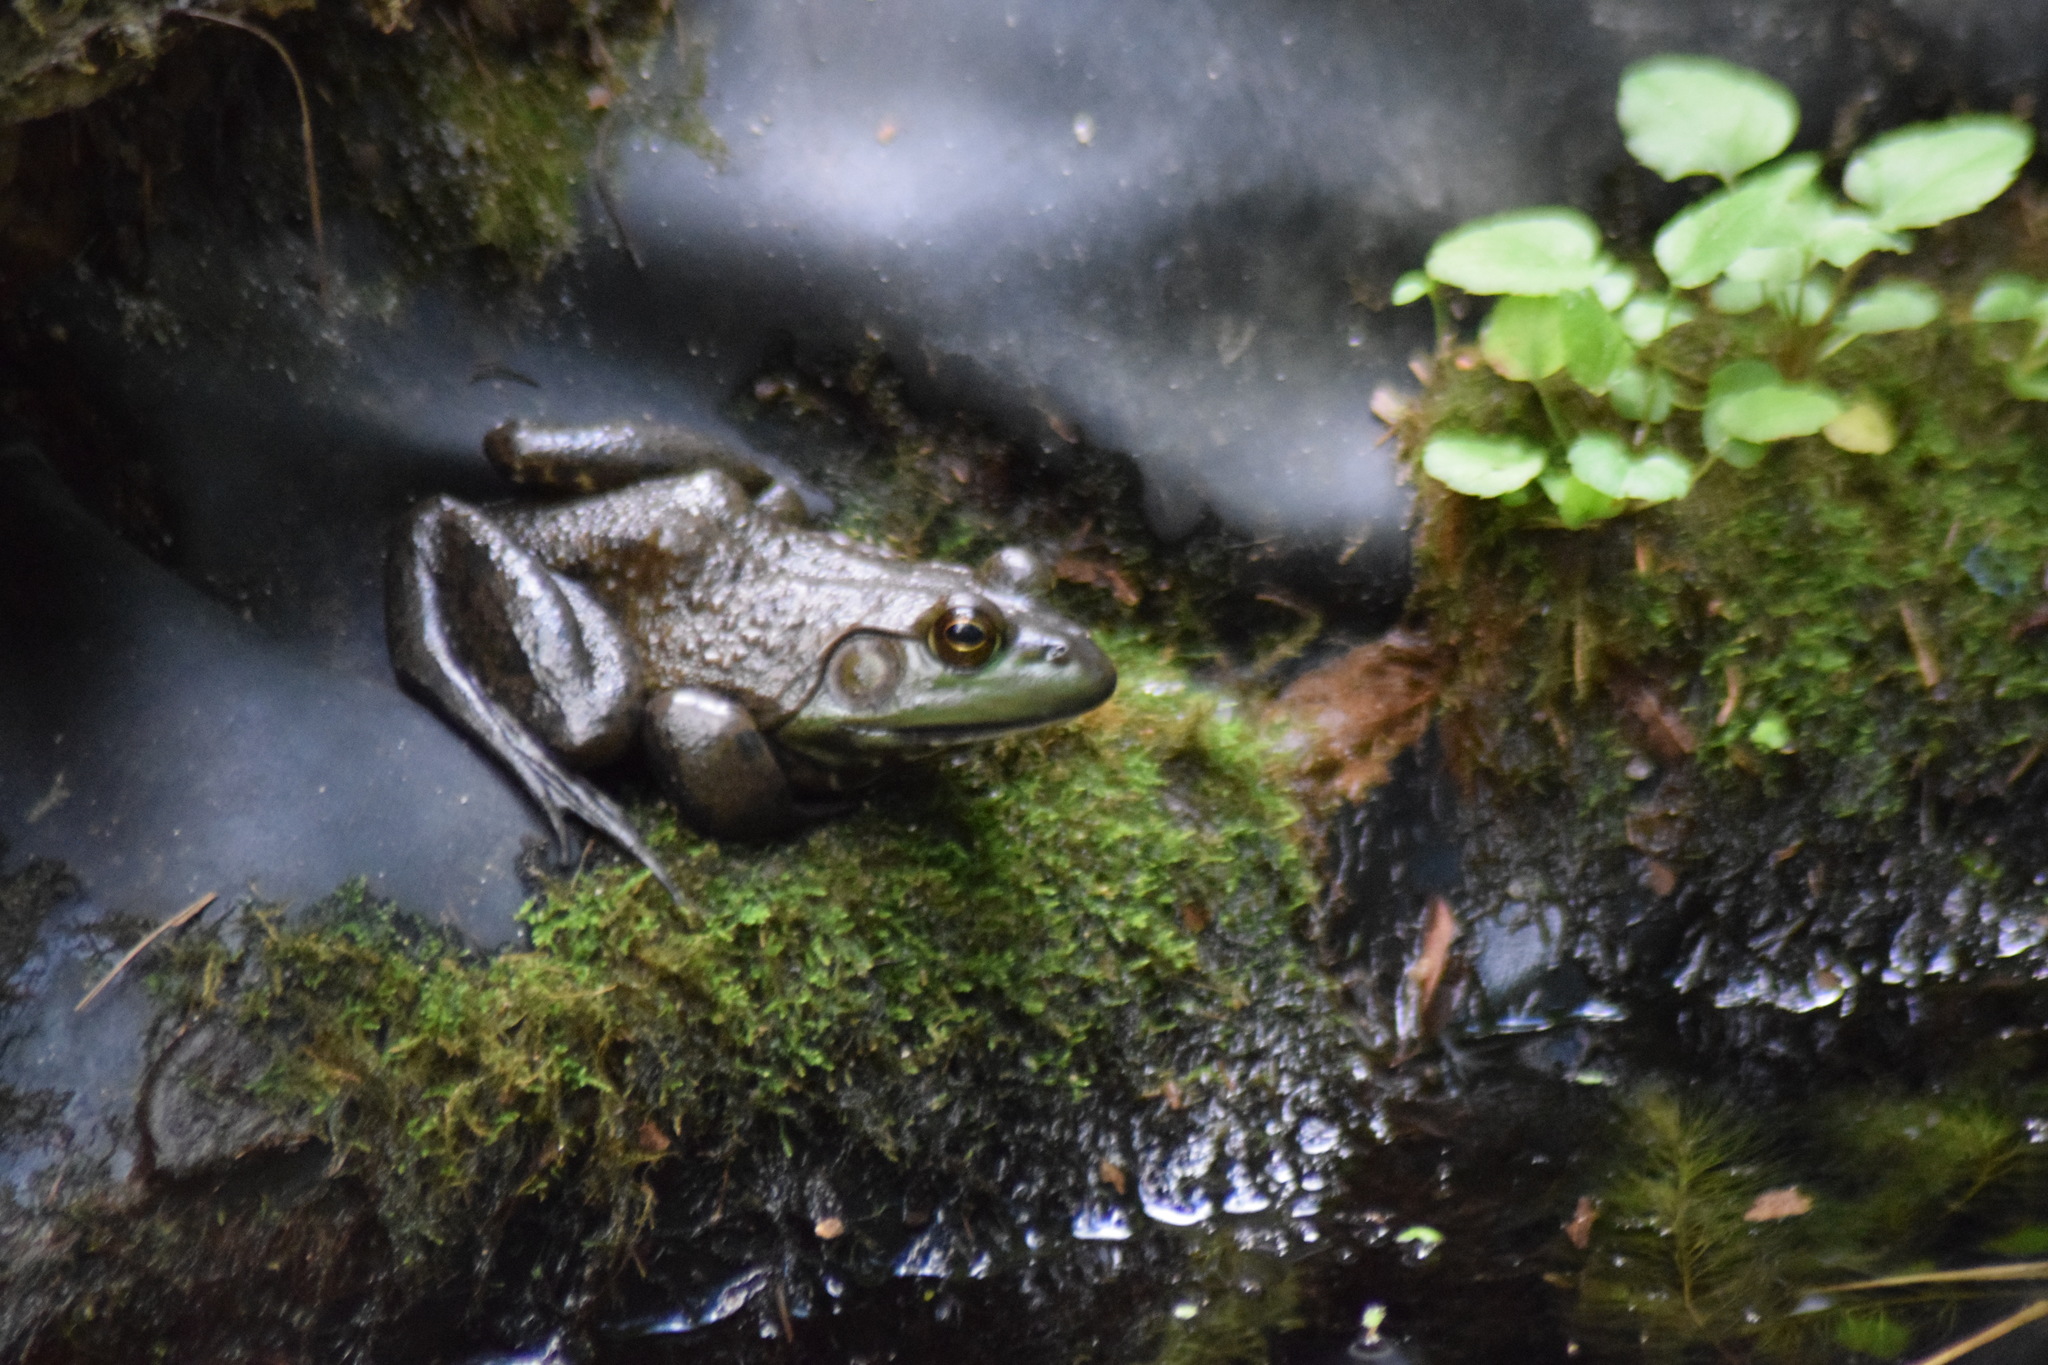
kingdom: Animalia
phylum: Chordata
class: Amphibia
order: Anura
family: Ranidae
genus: Lithobates
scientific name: Lithobates catesbeianus
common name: American bullfrog
